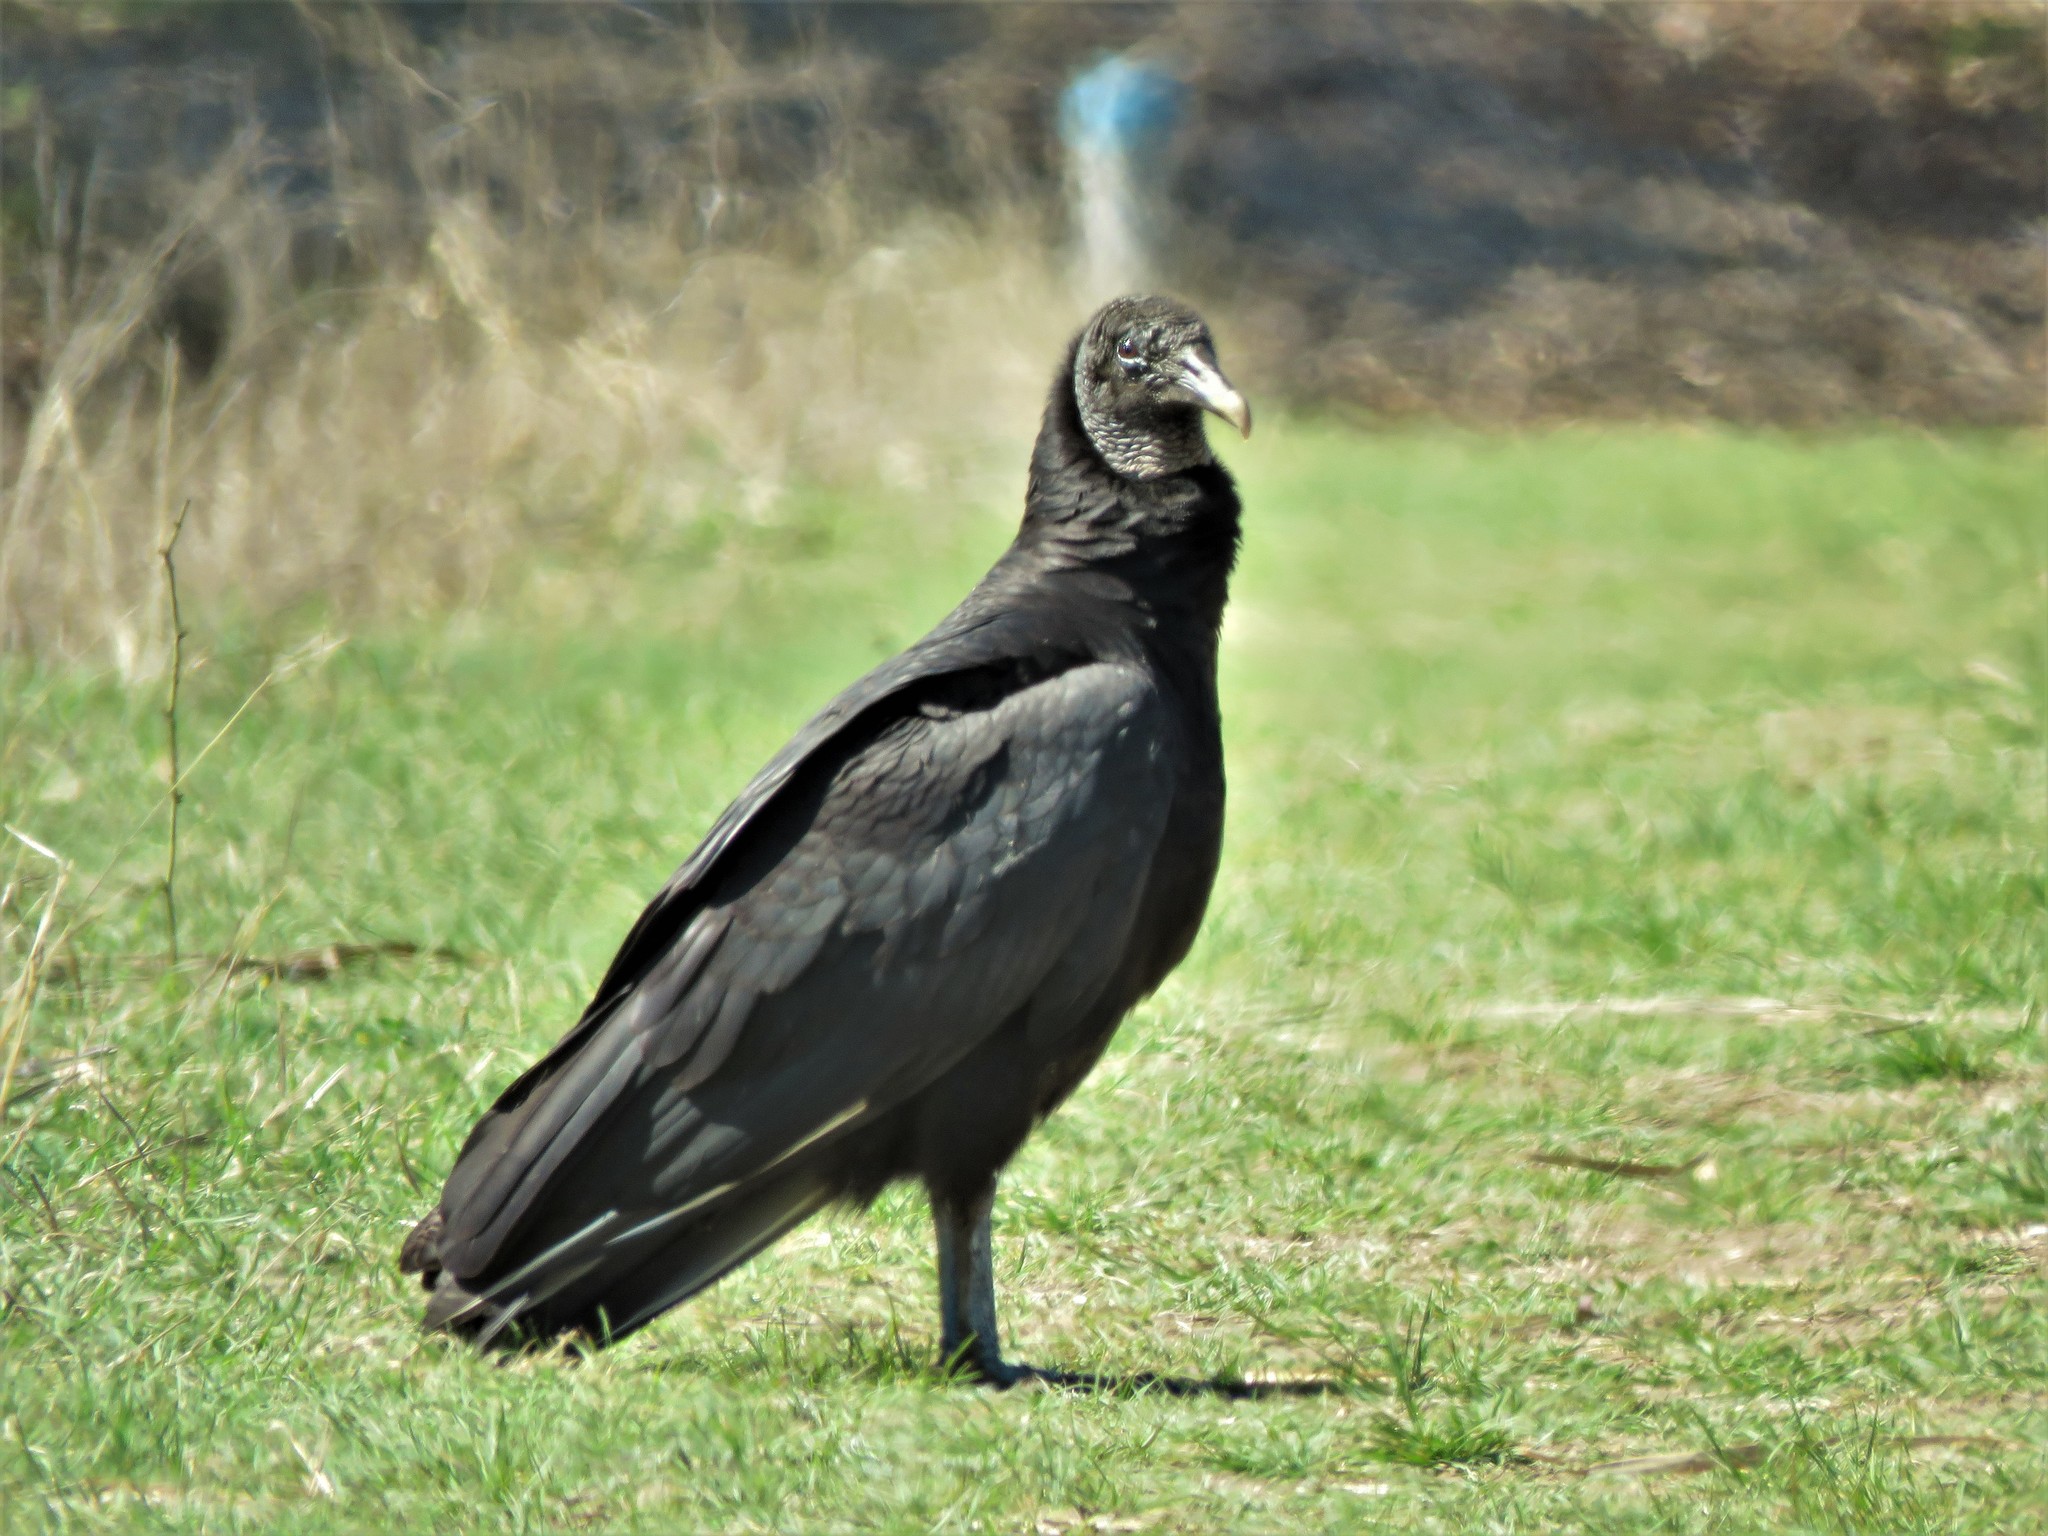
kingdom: Animalia
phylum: Chordata
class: Aves
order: Accipitriformes
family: Cathartidae
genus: Coragyps
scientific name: Coragyps atratus
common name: Black vulture
